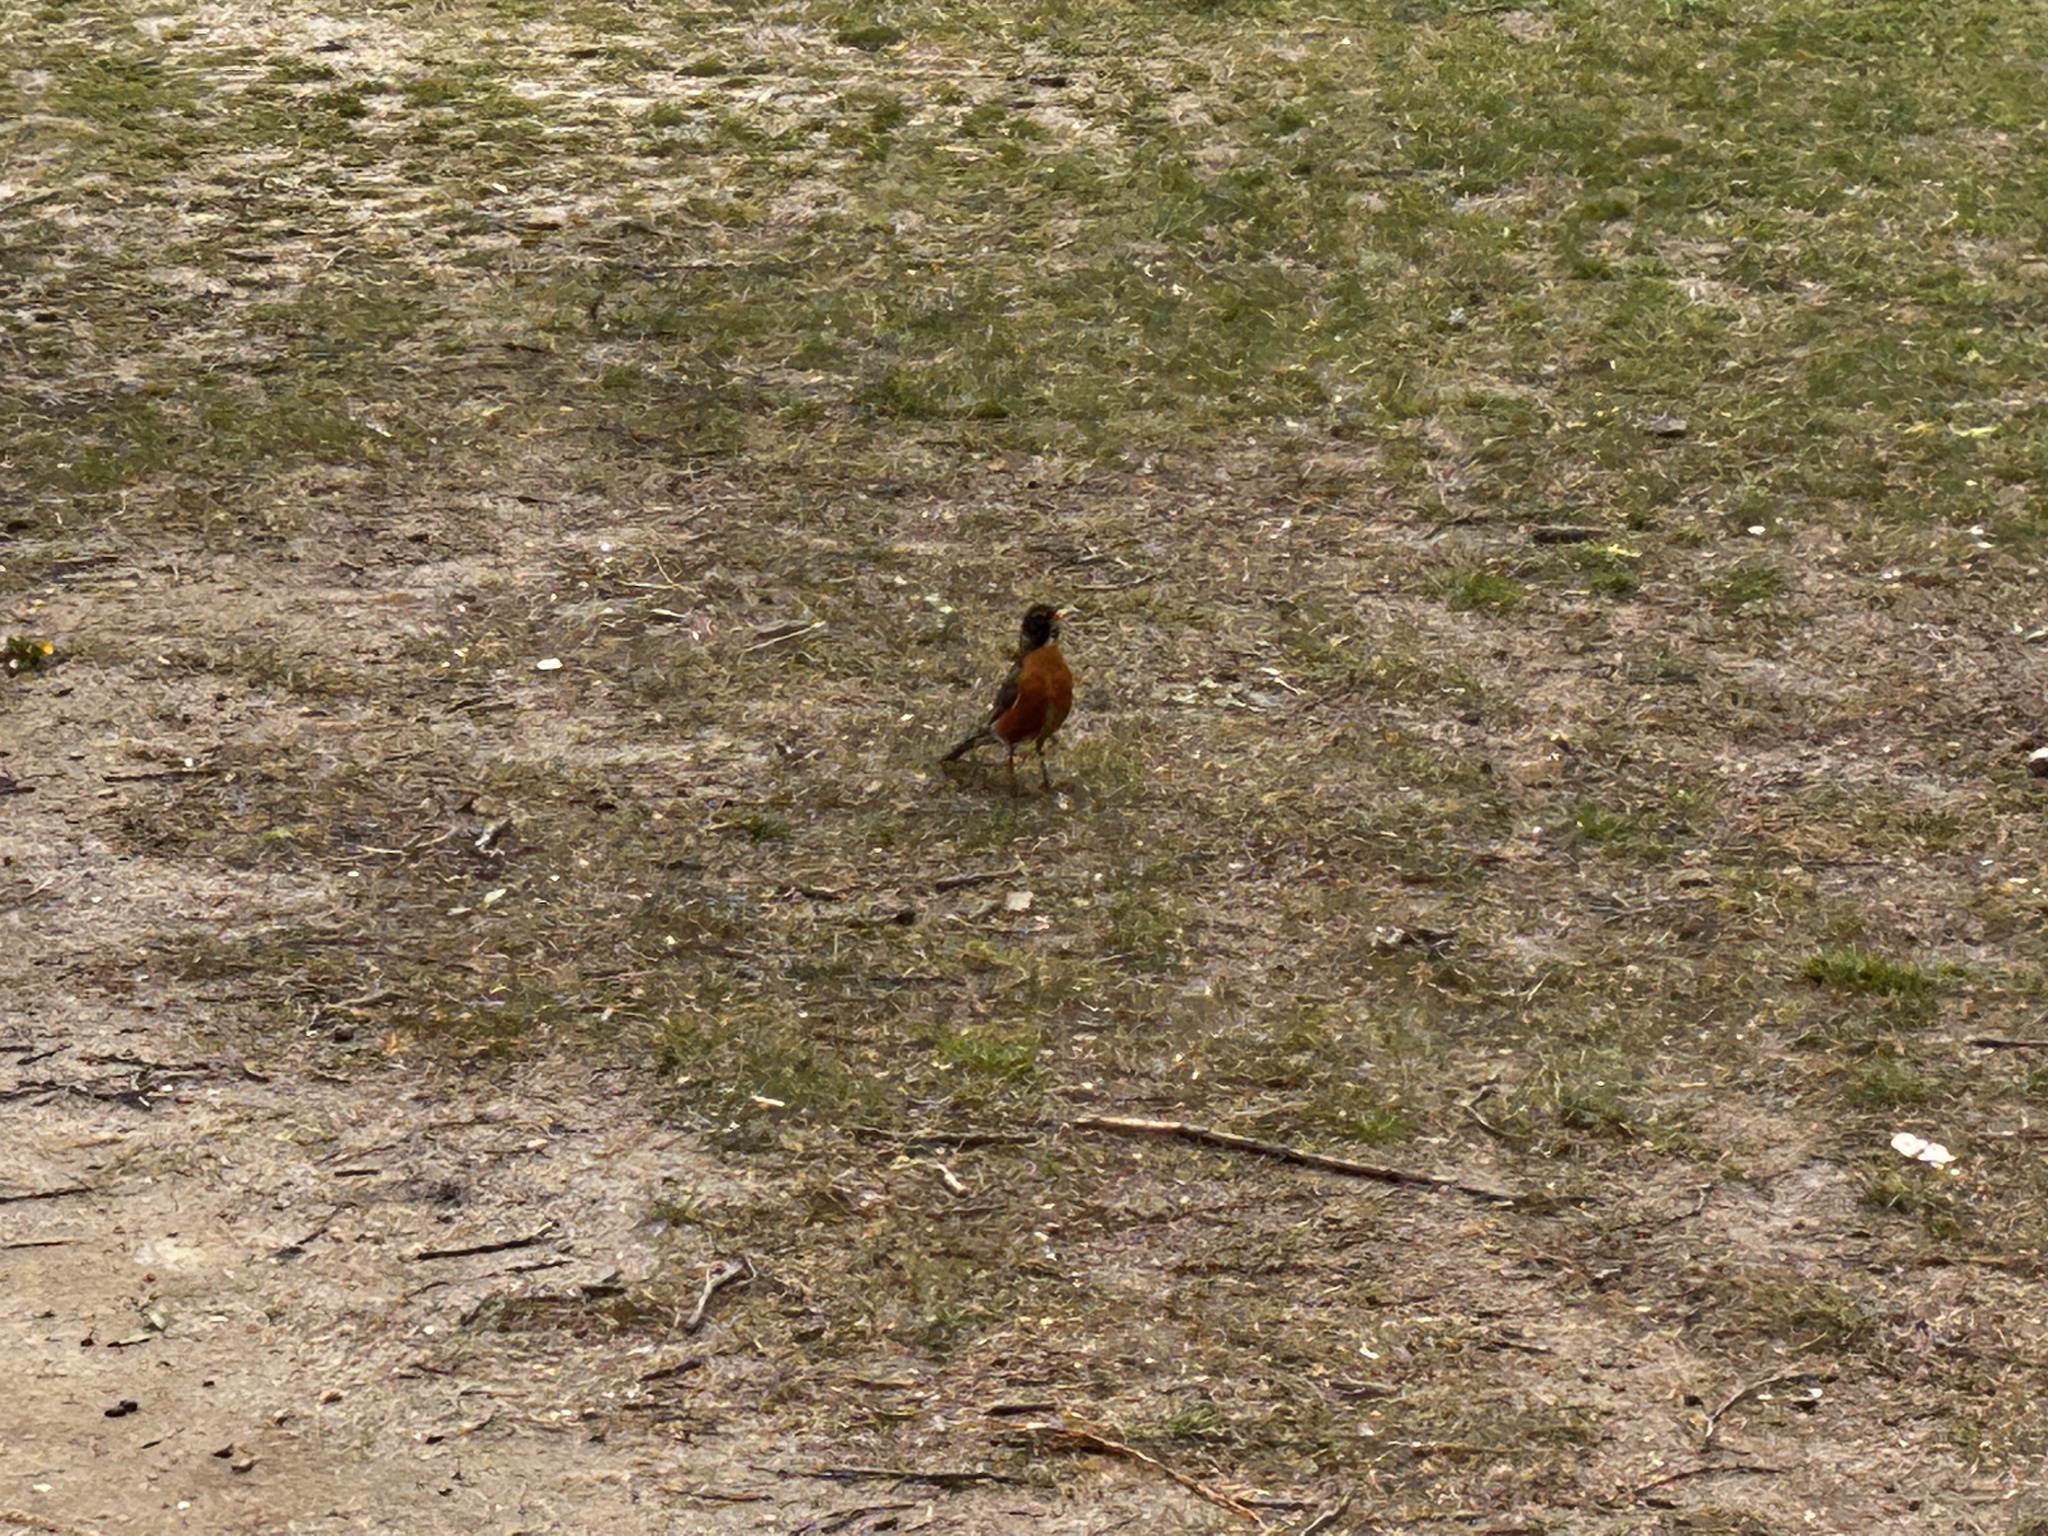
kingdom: Animalia
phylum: Chordata
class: Aves
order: Passeriformes
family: Turdidae
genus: Turdus
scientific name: Turdus migratorius
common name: American robin
